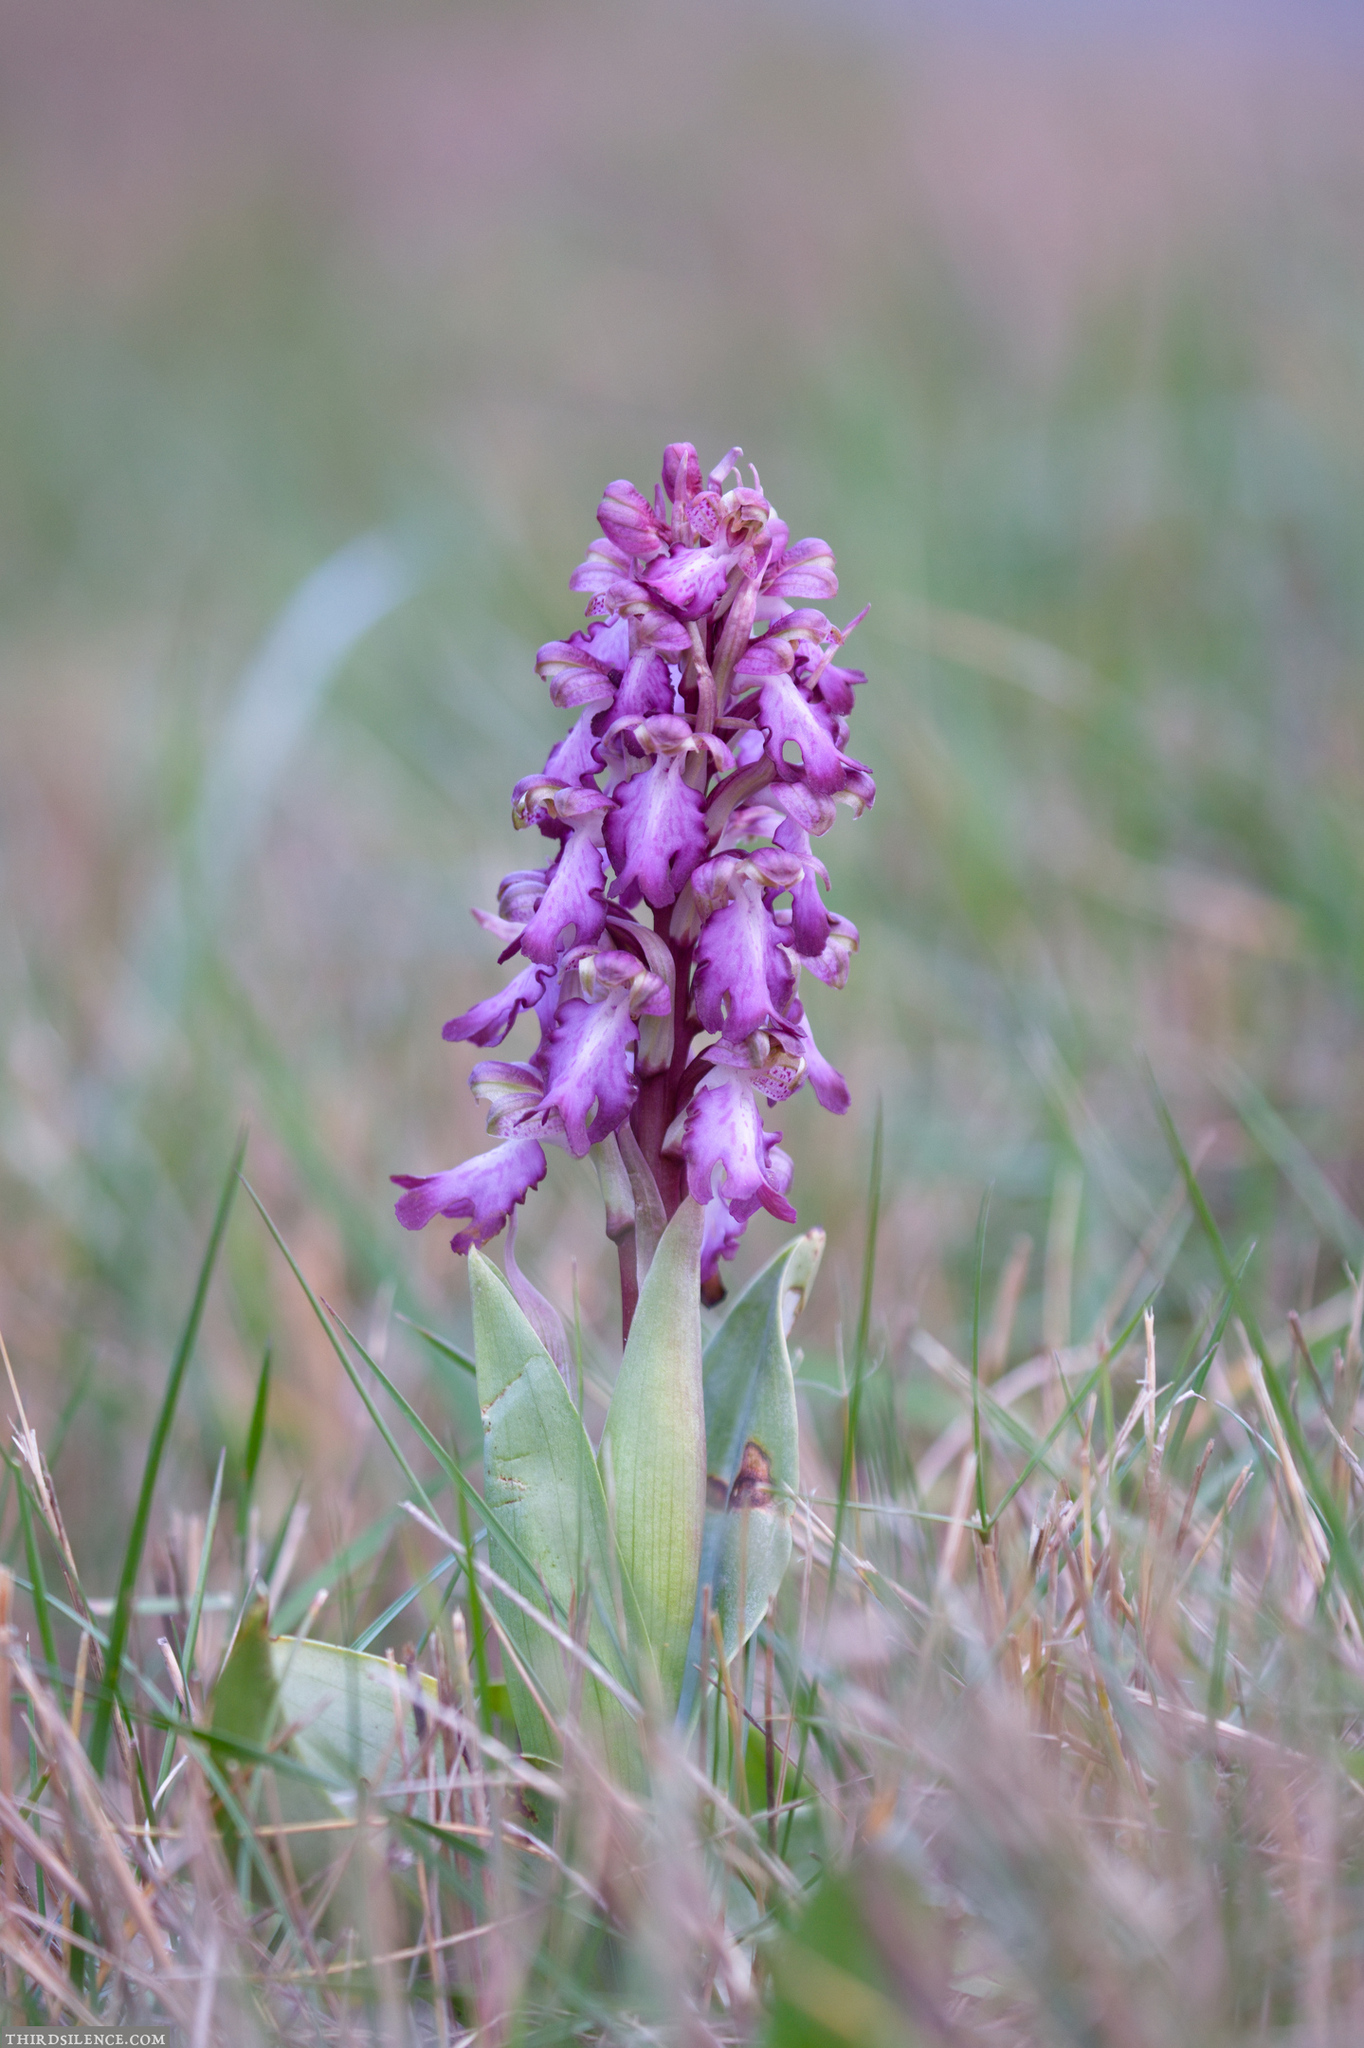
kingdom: Plantae
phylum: Tracheophyta
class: Liliopsida
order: Asparagales
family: Orchidaceae
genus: Himantoglossum
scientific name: Himantoglossum robertianum
